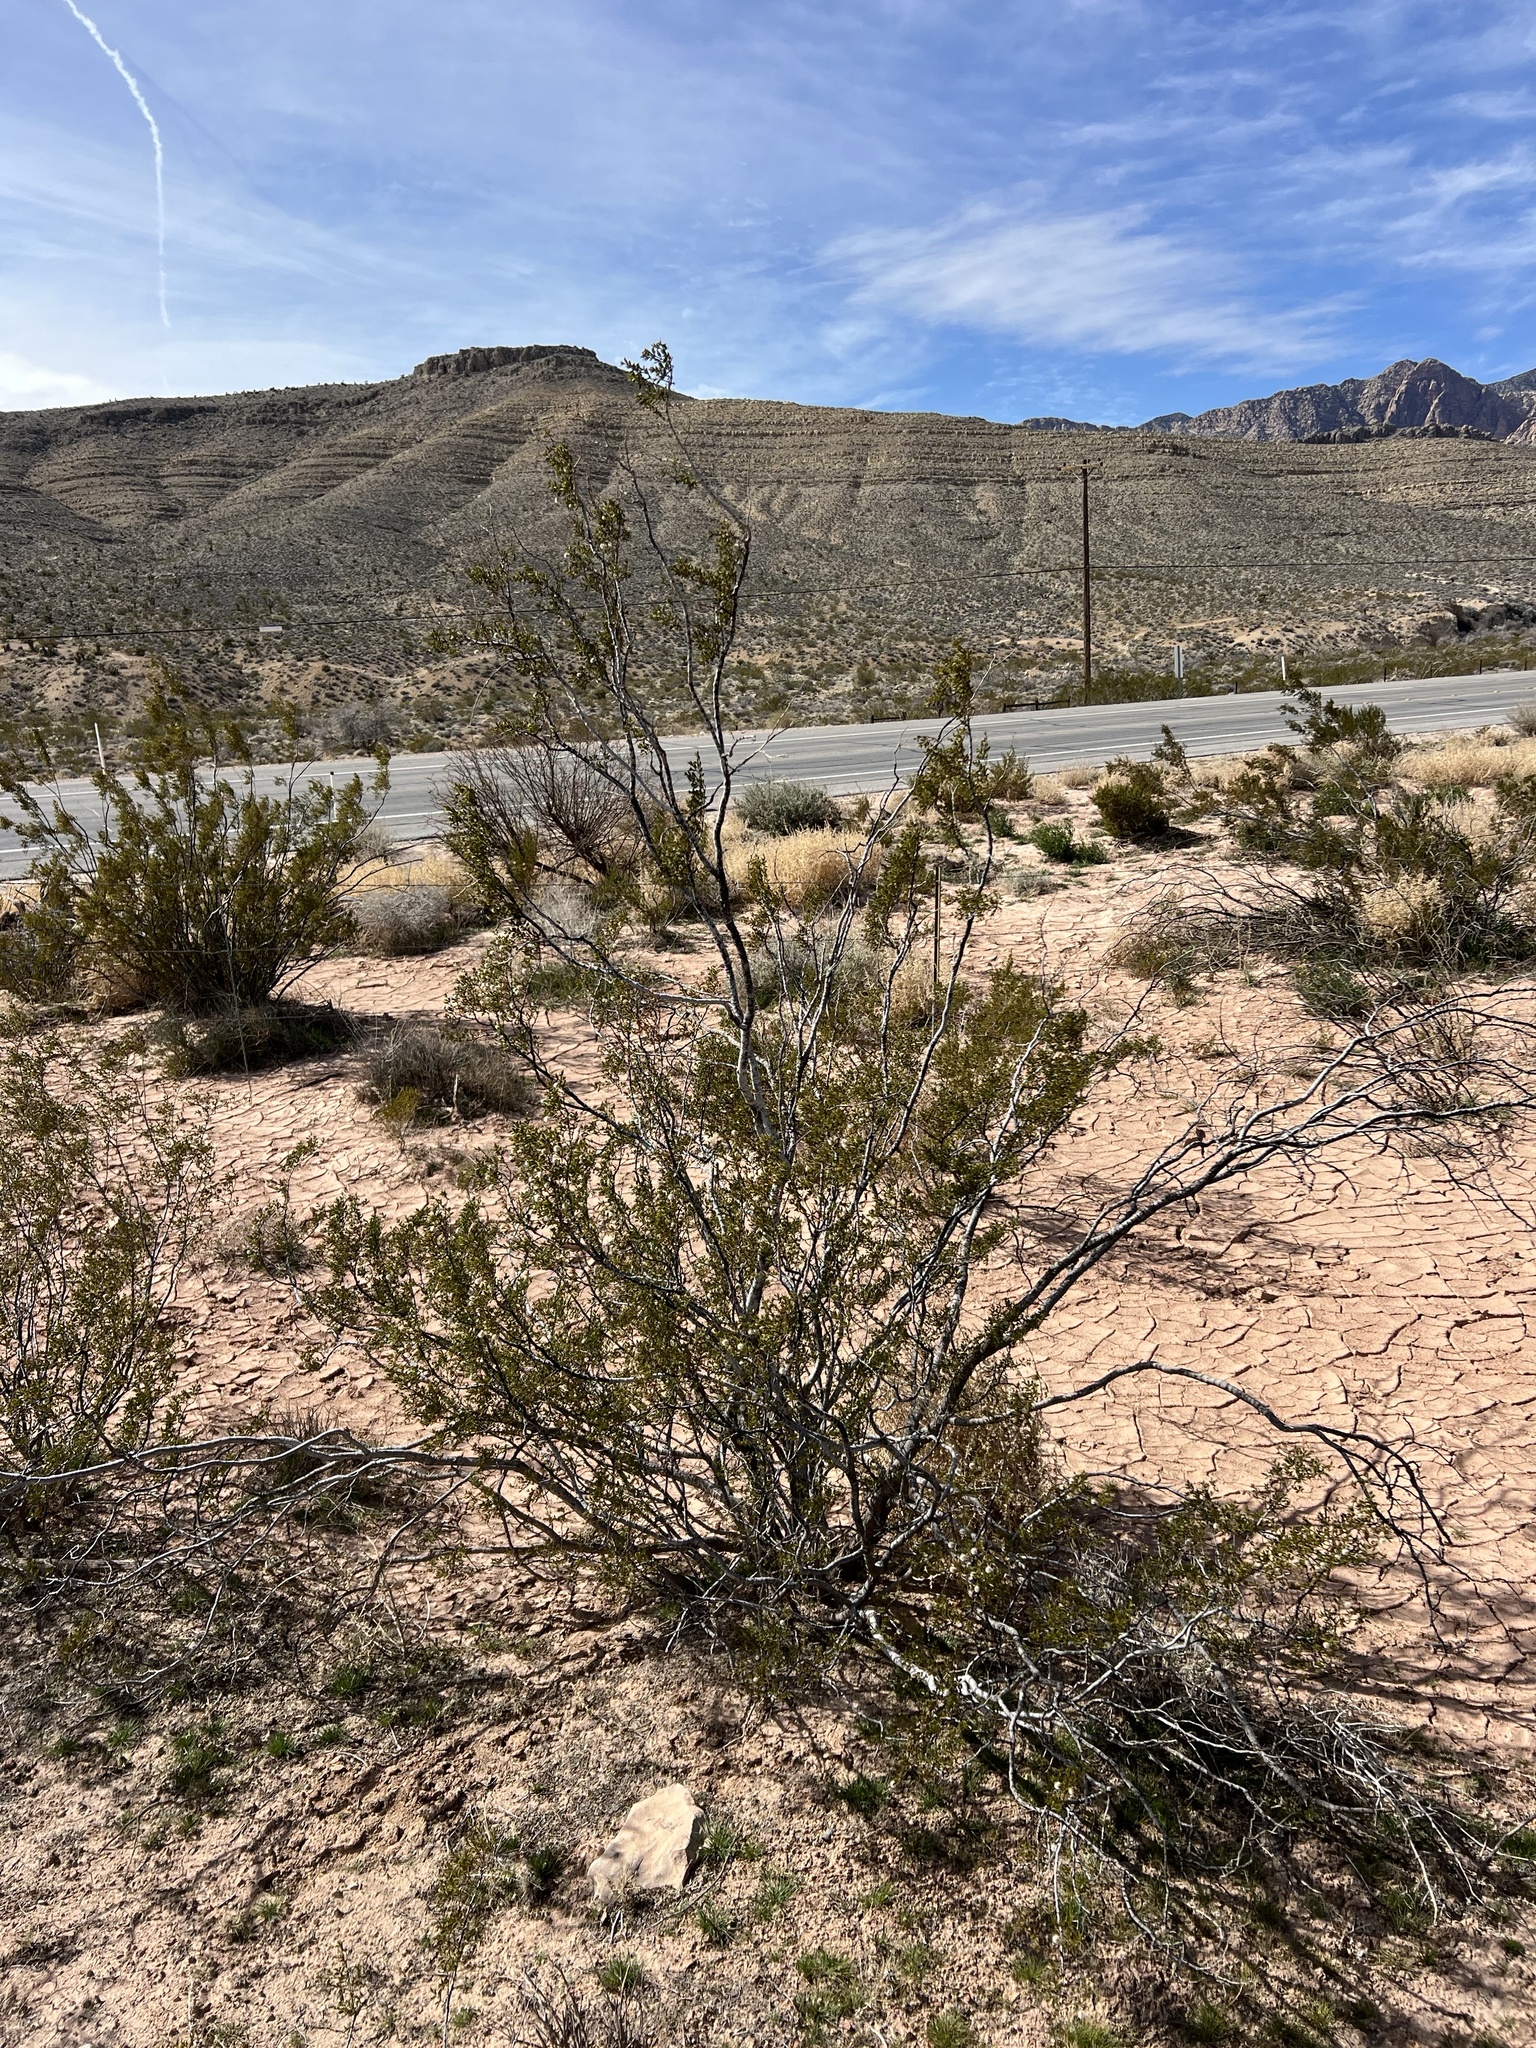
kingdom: Plantae
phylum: Tracheophyta
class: Magnoliopsida
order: Zygophyllales
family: Zygophyllaceae
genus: Larrea
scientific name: Larrea tridentata
